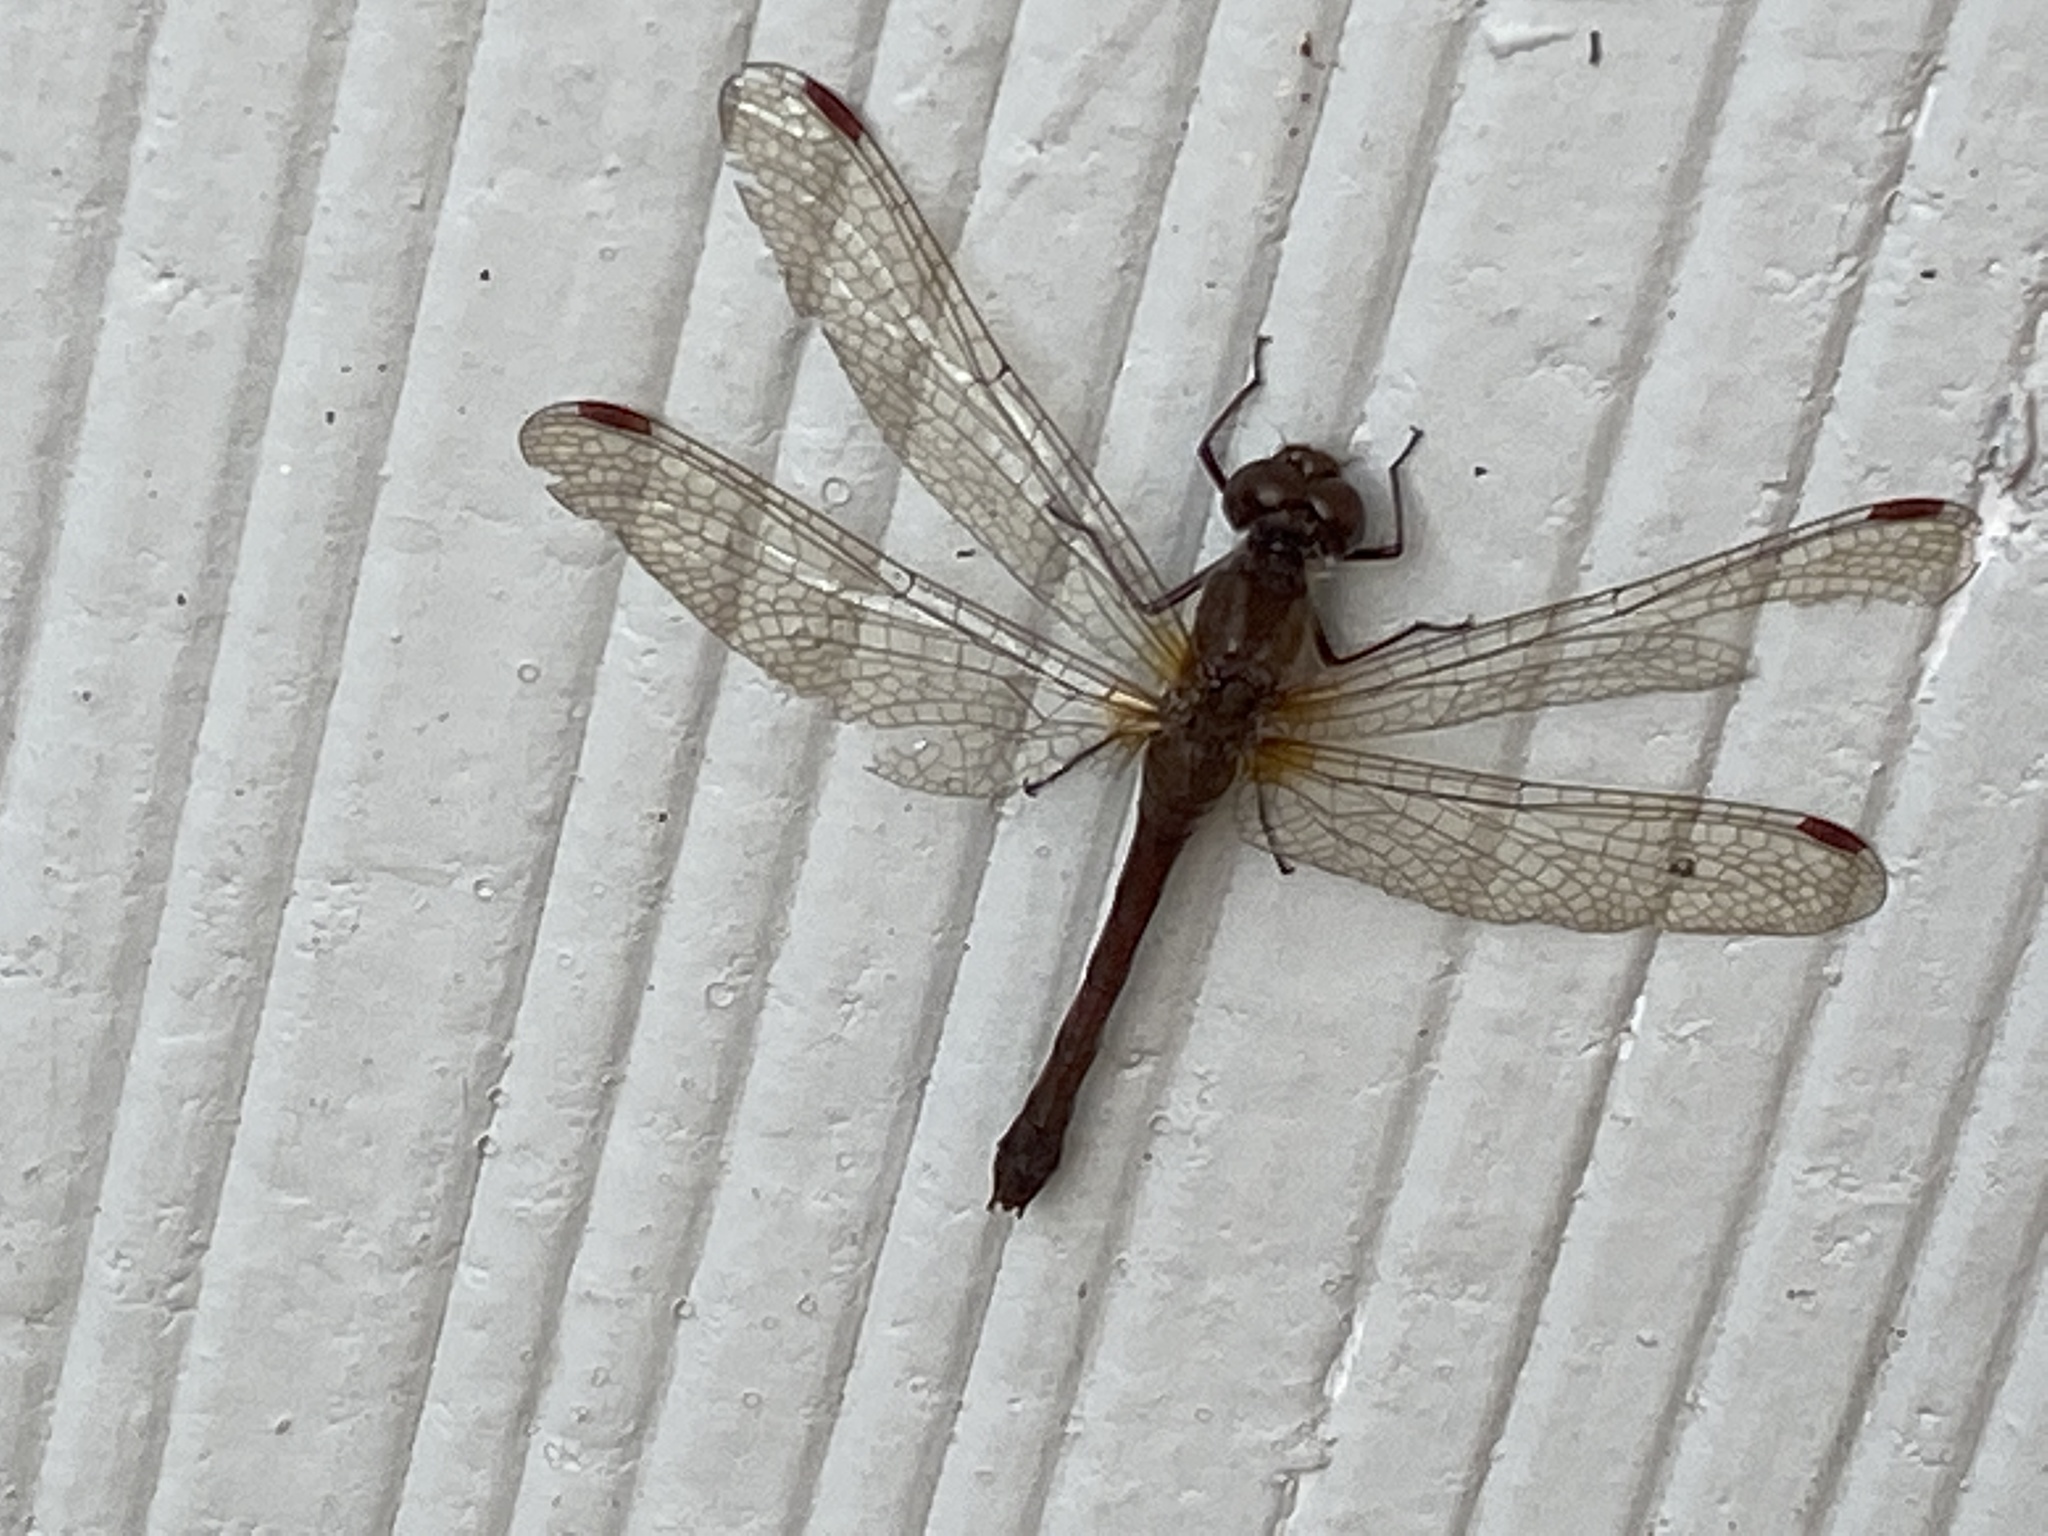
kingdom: Animalia
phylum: Arthropoda
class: Insecta
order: Odonata
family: Libellulidae
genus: Sympetrum
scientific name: Sympetrum vicinum
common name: Autumn meadowhawk
